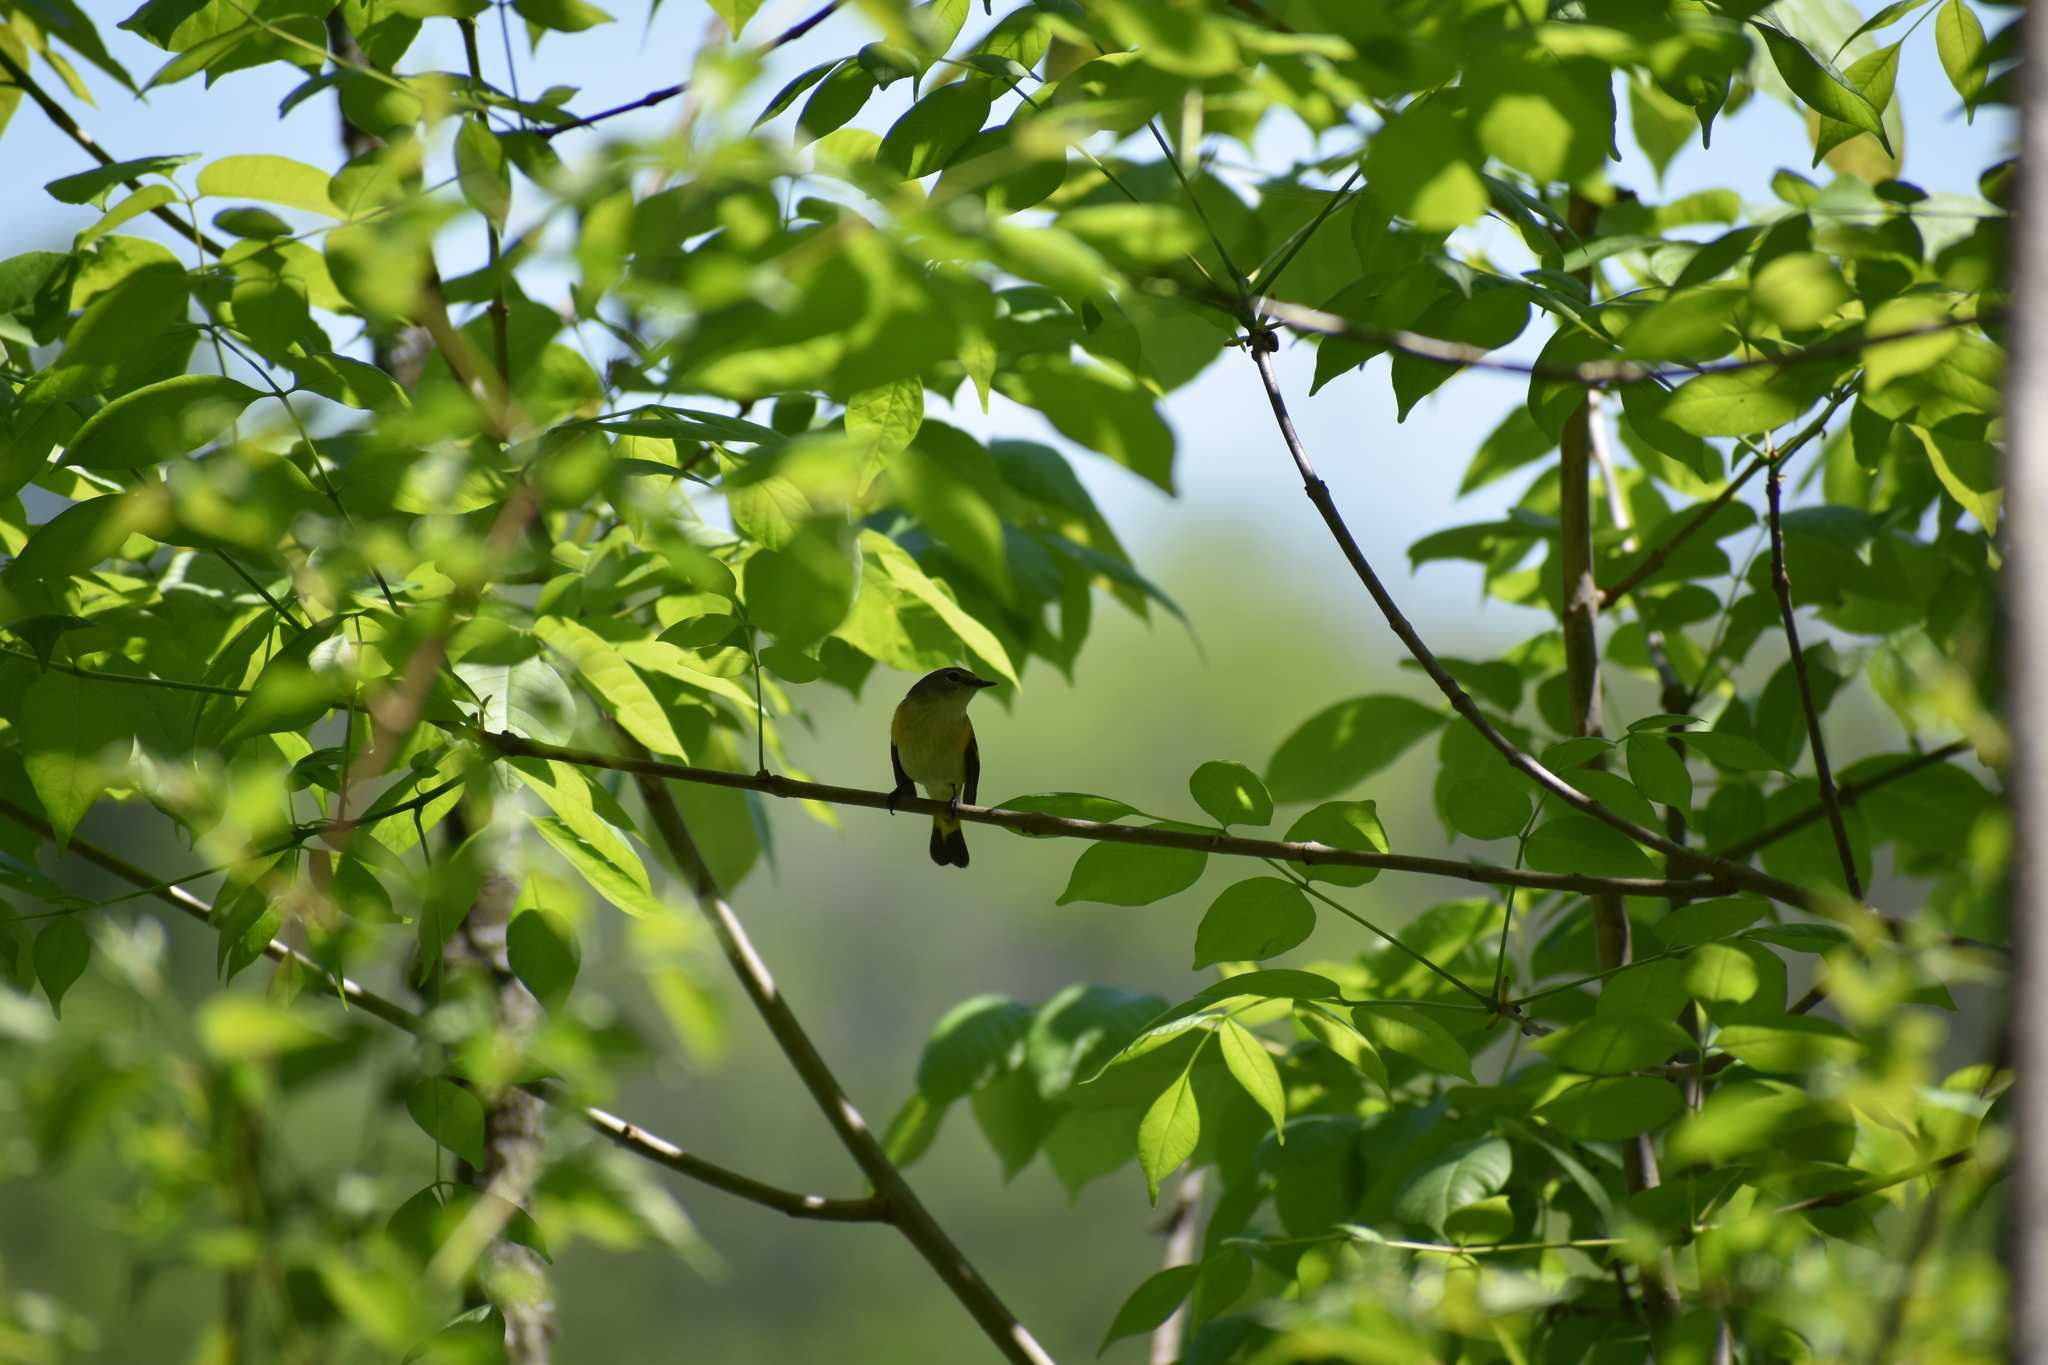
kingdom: Animalia
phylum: Chordata
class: Aves
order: Passeriformes
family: Parulidae
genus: Setophaga
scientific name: Setophaga ruticilla
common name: American redstart
